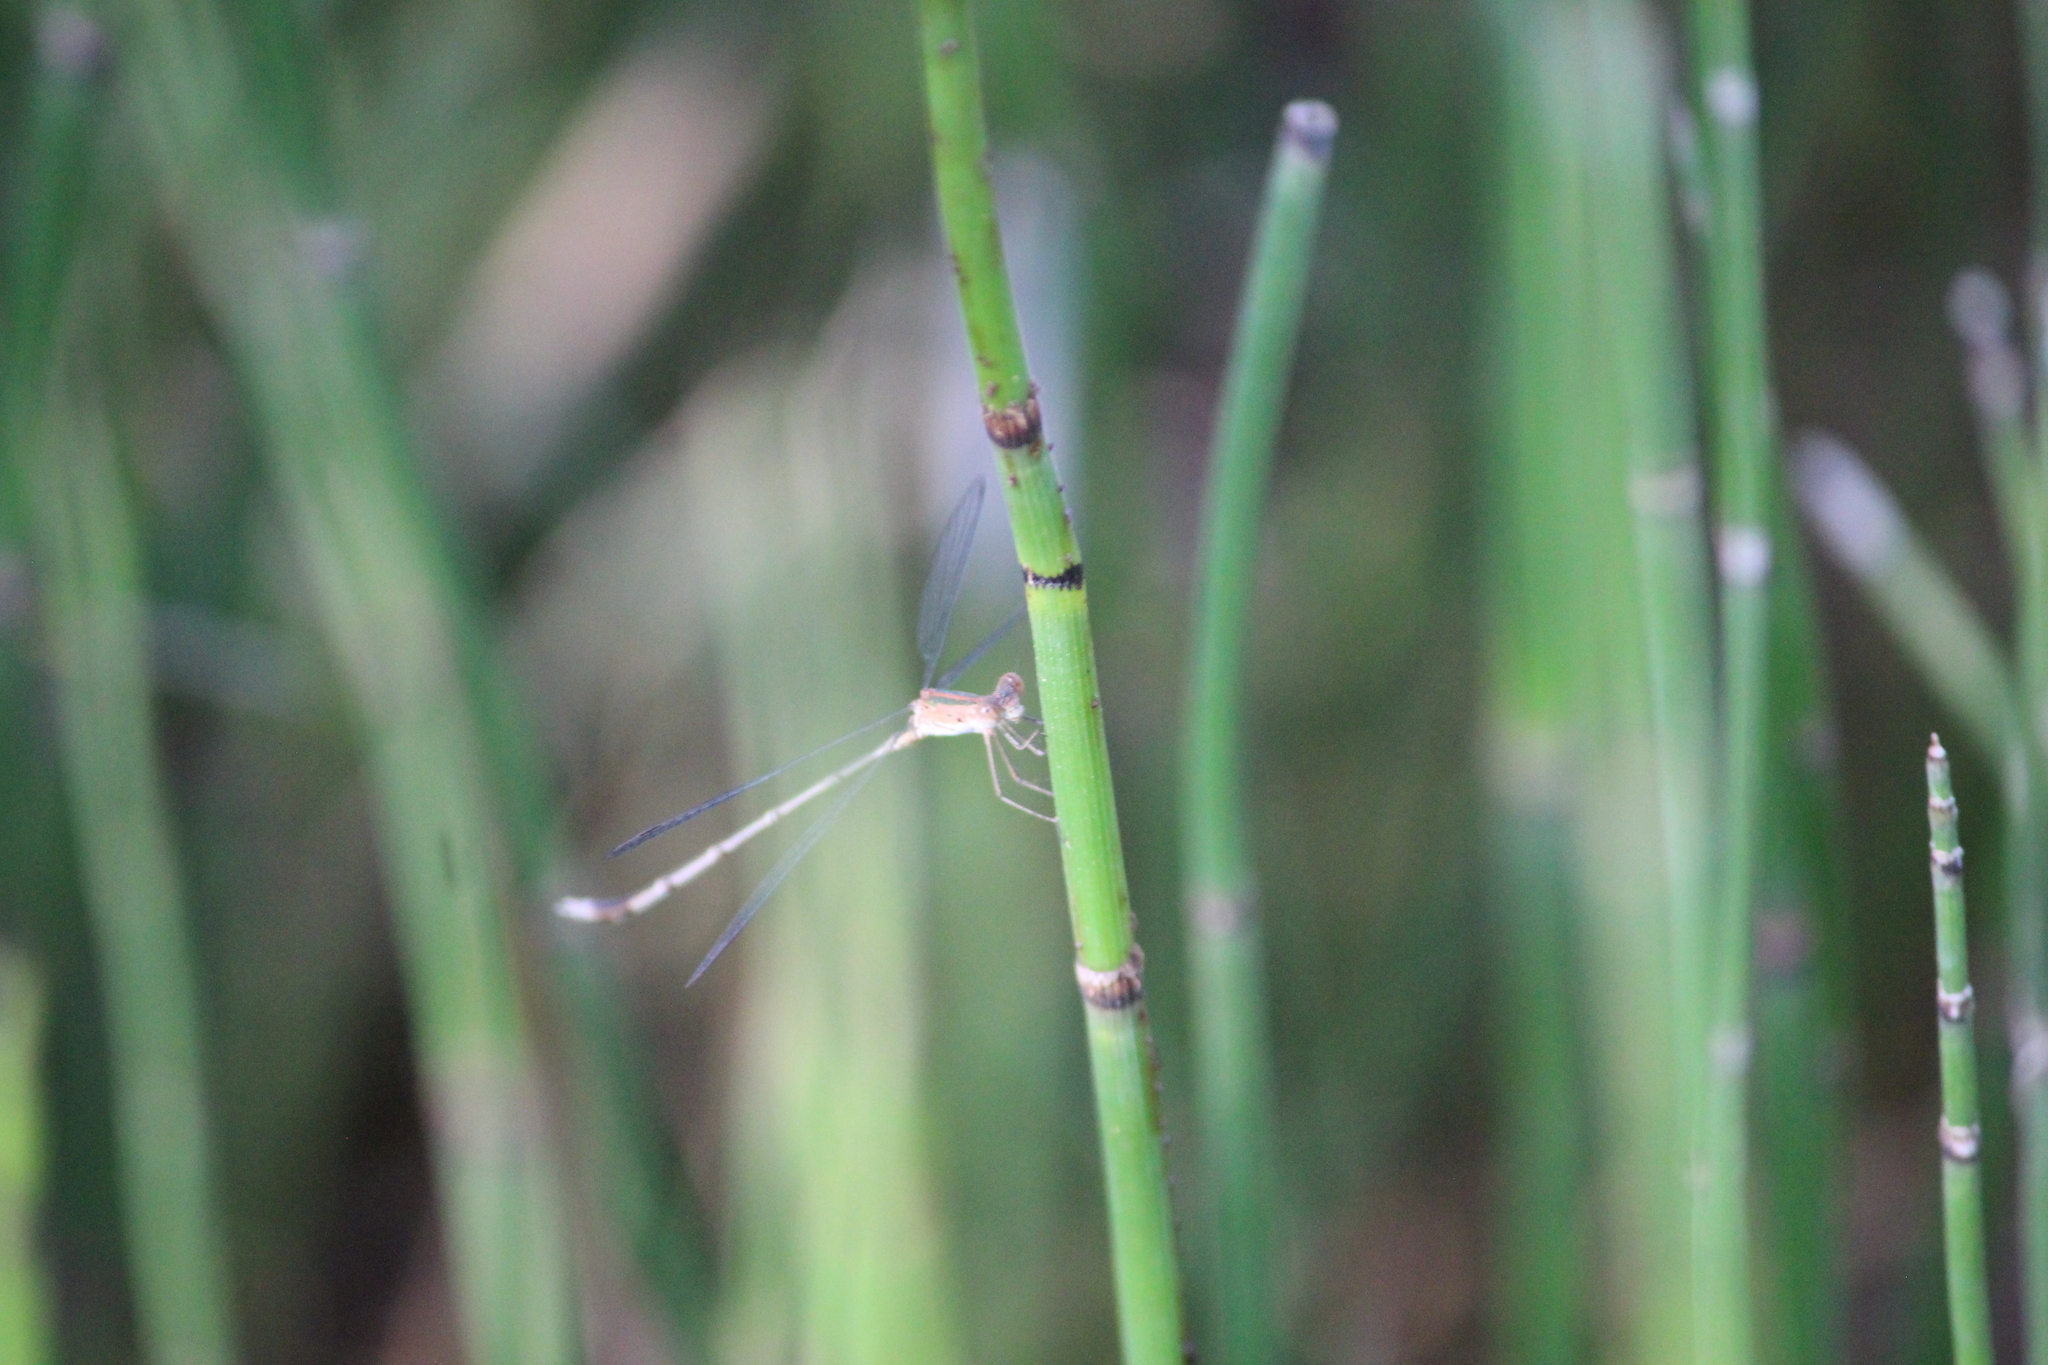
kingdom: Animalia
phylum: Arthropoda
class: Insecta
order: Odonata
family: Lestidae
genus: Lestes
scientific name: Lestes elatus
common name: Emerald spreadwing
